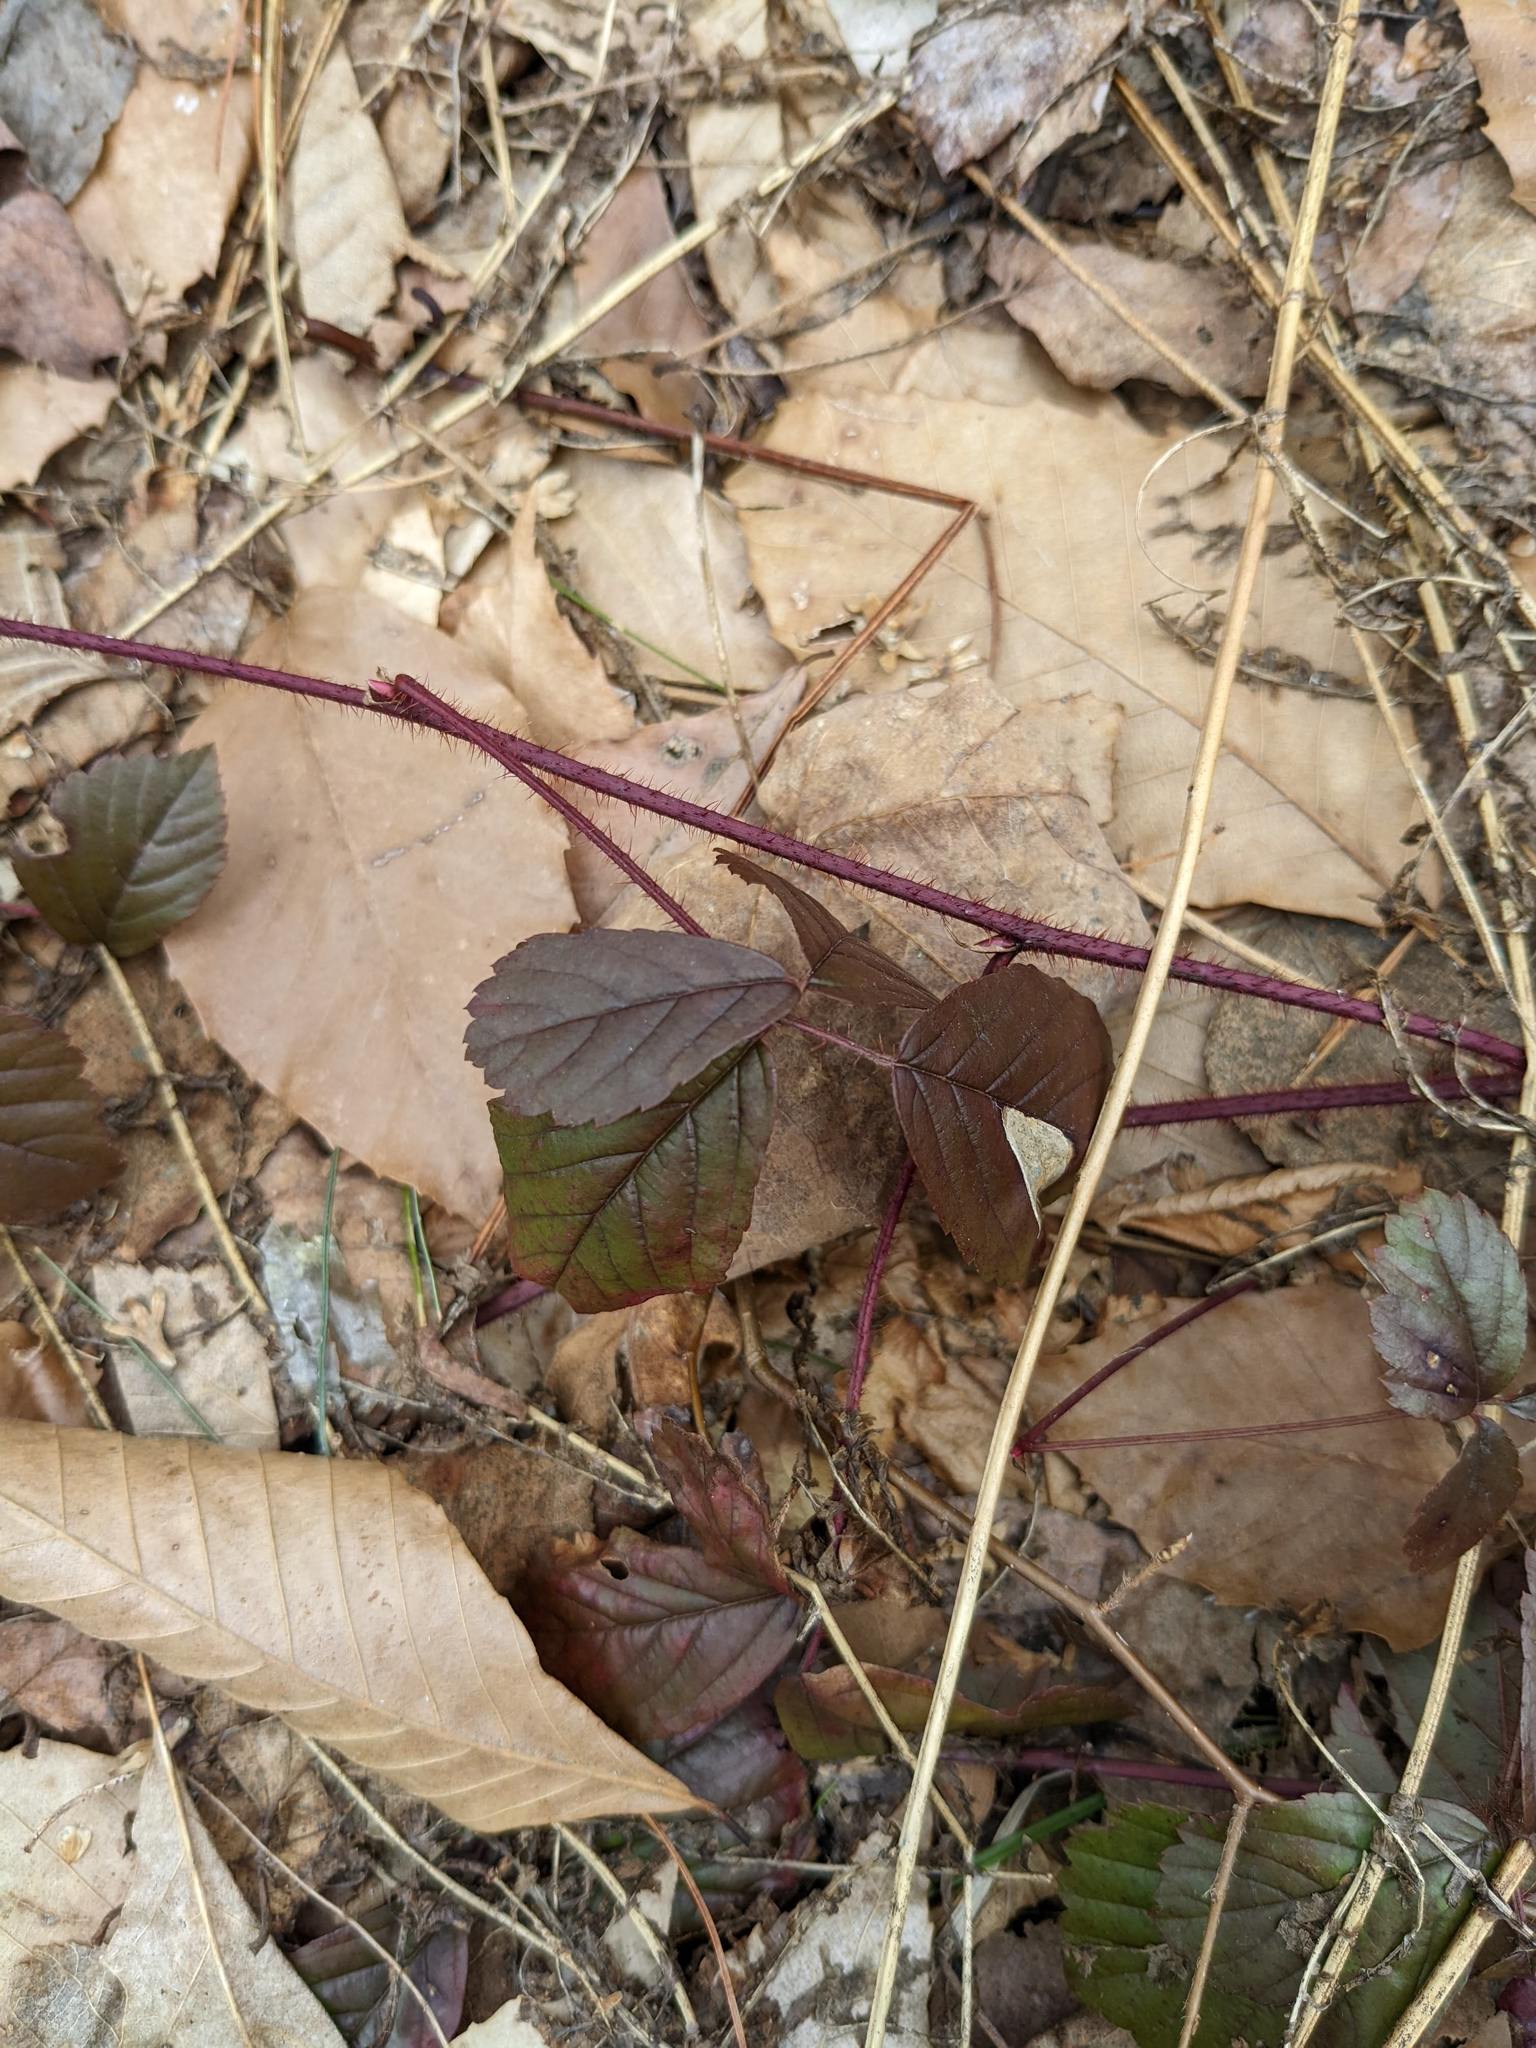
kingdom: Plantae
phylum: Tracheophyta
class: Magnoliopsida
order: Rosales
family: Rosaceae
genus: Rubus
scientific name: Rubus hispidus
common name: Running blackberry
